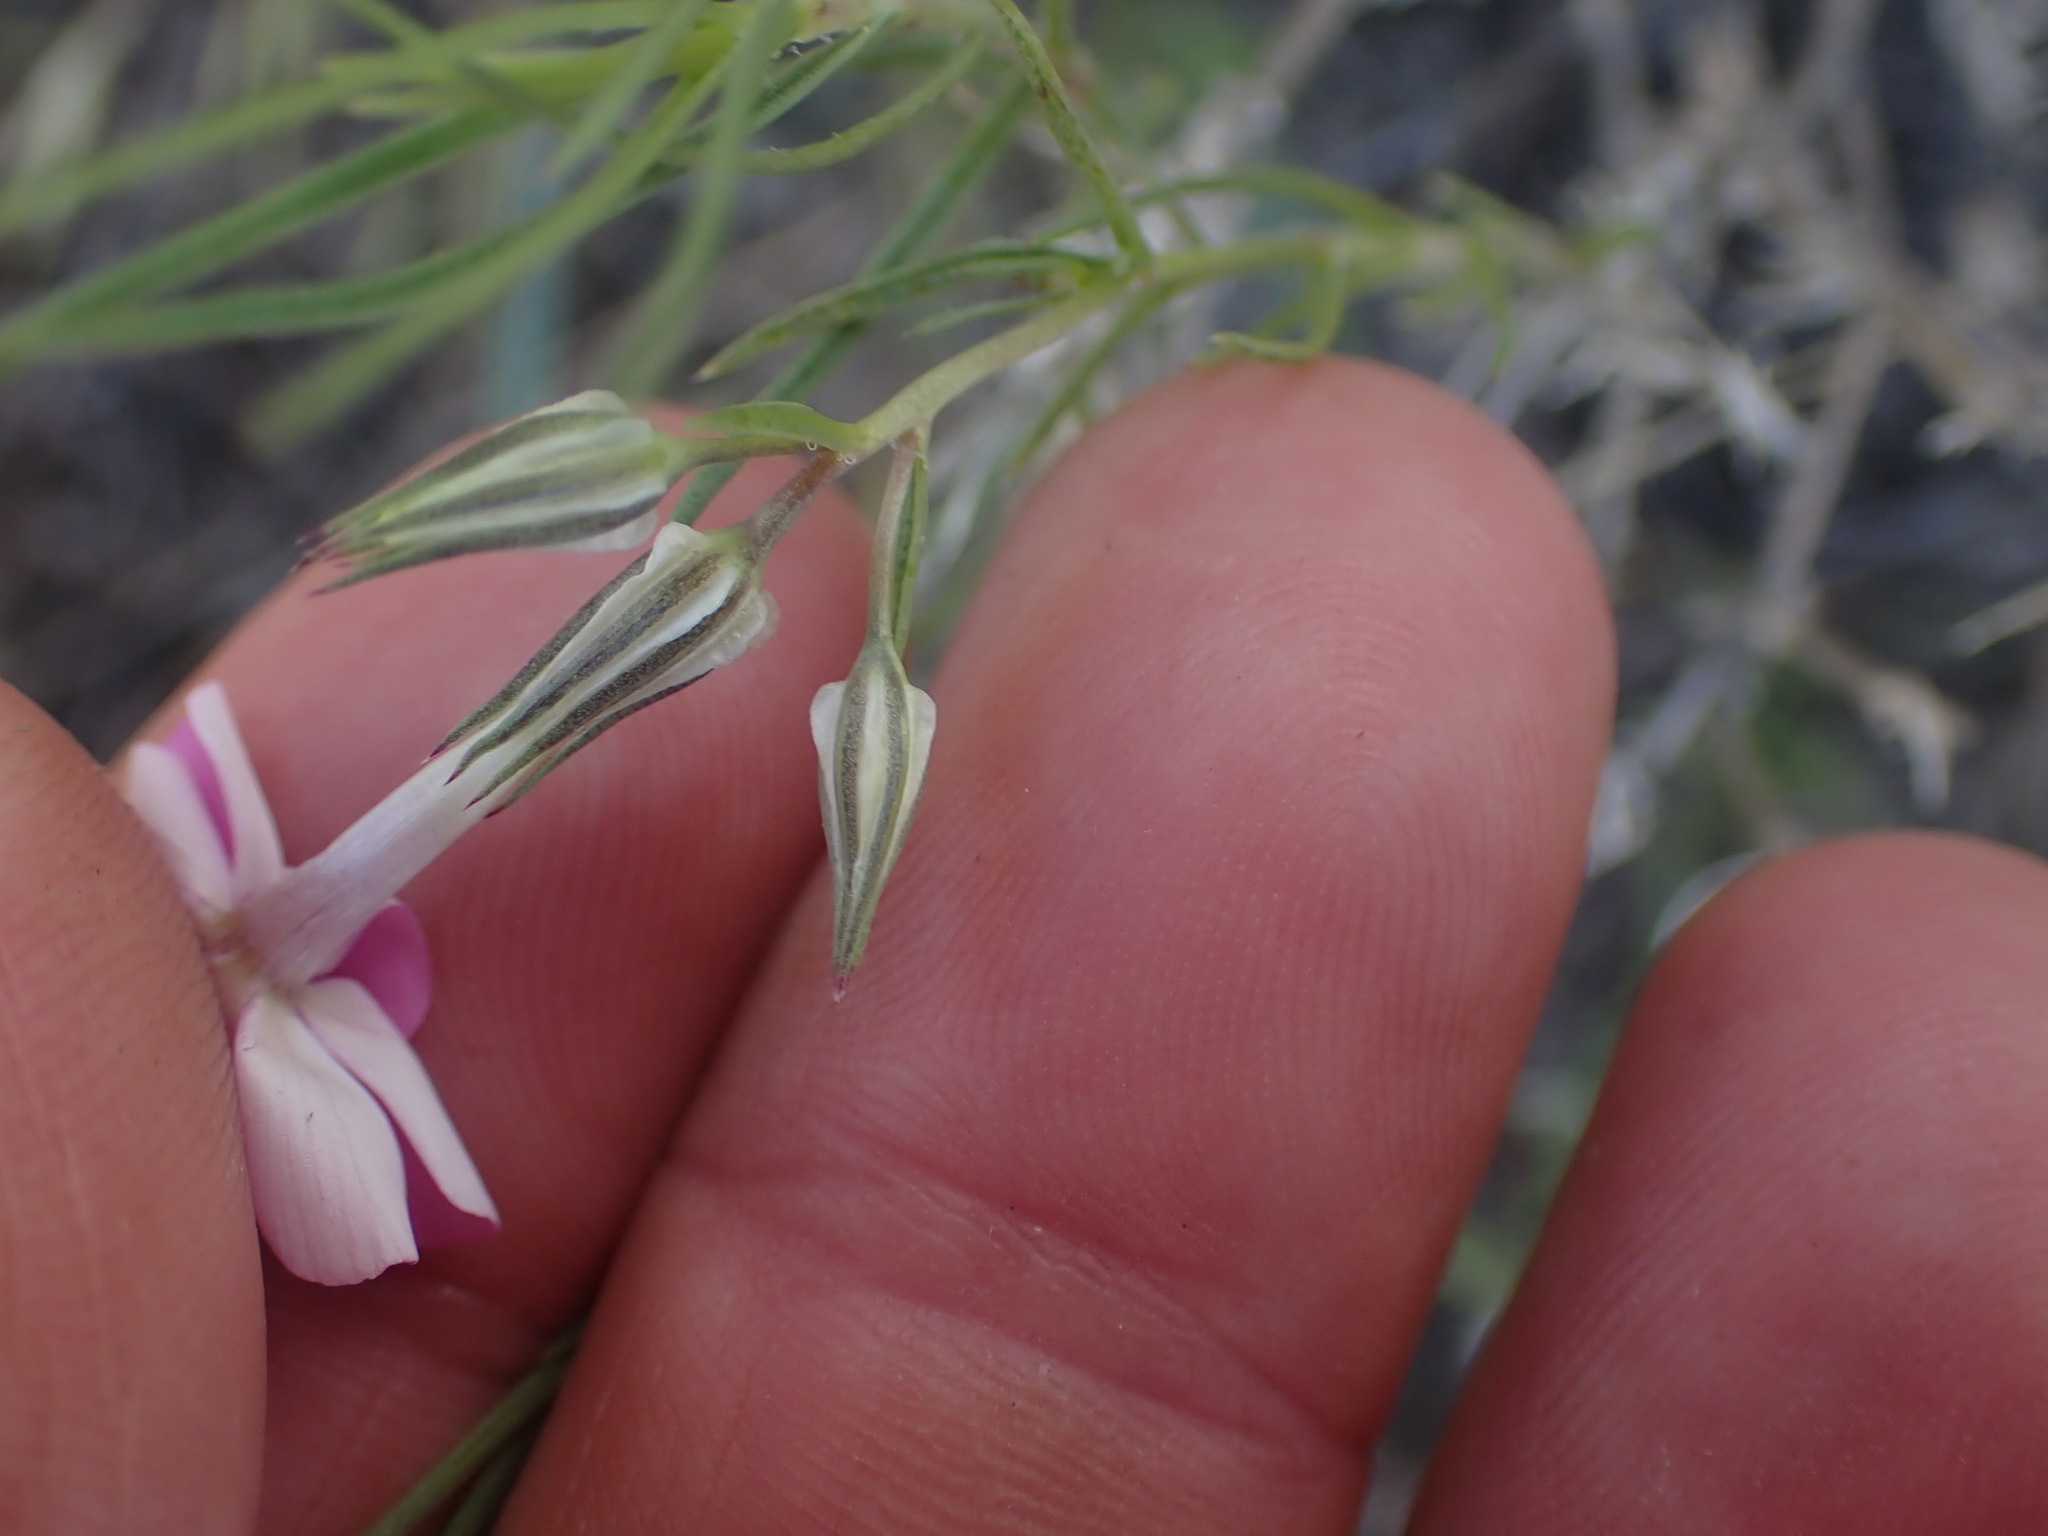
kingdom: Plantae
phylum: Tracheophyta
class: Magnoliopsida
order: Ericales
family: Polemoniaceae
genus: Phlox
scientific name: Phlox longifolia
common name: Longleaf phlox
